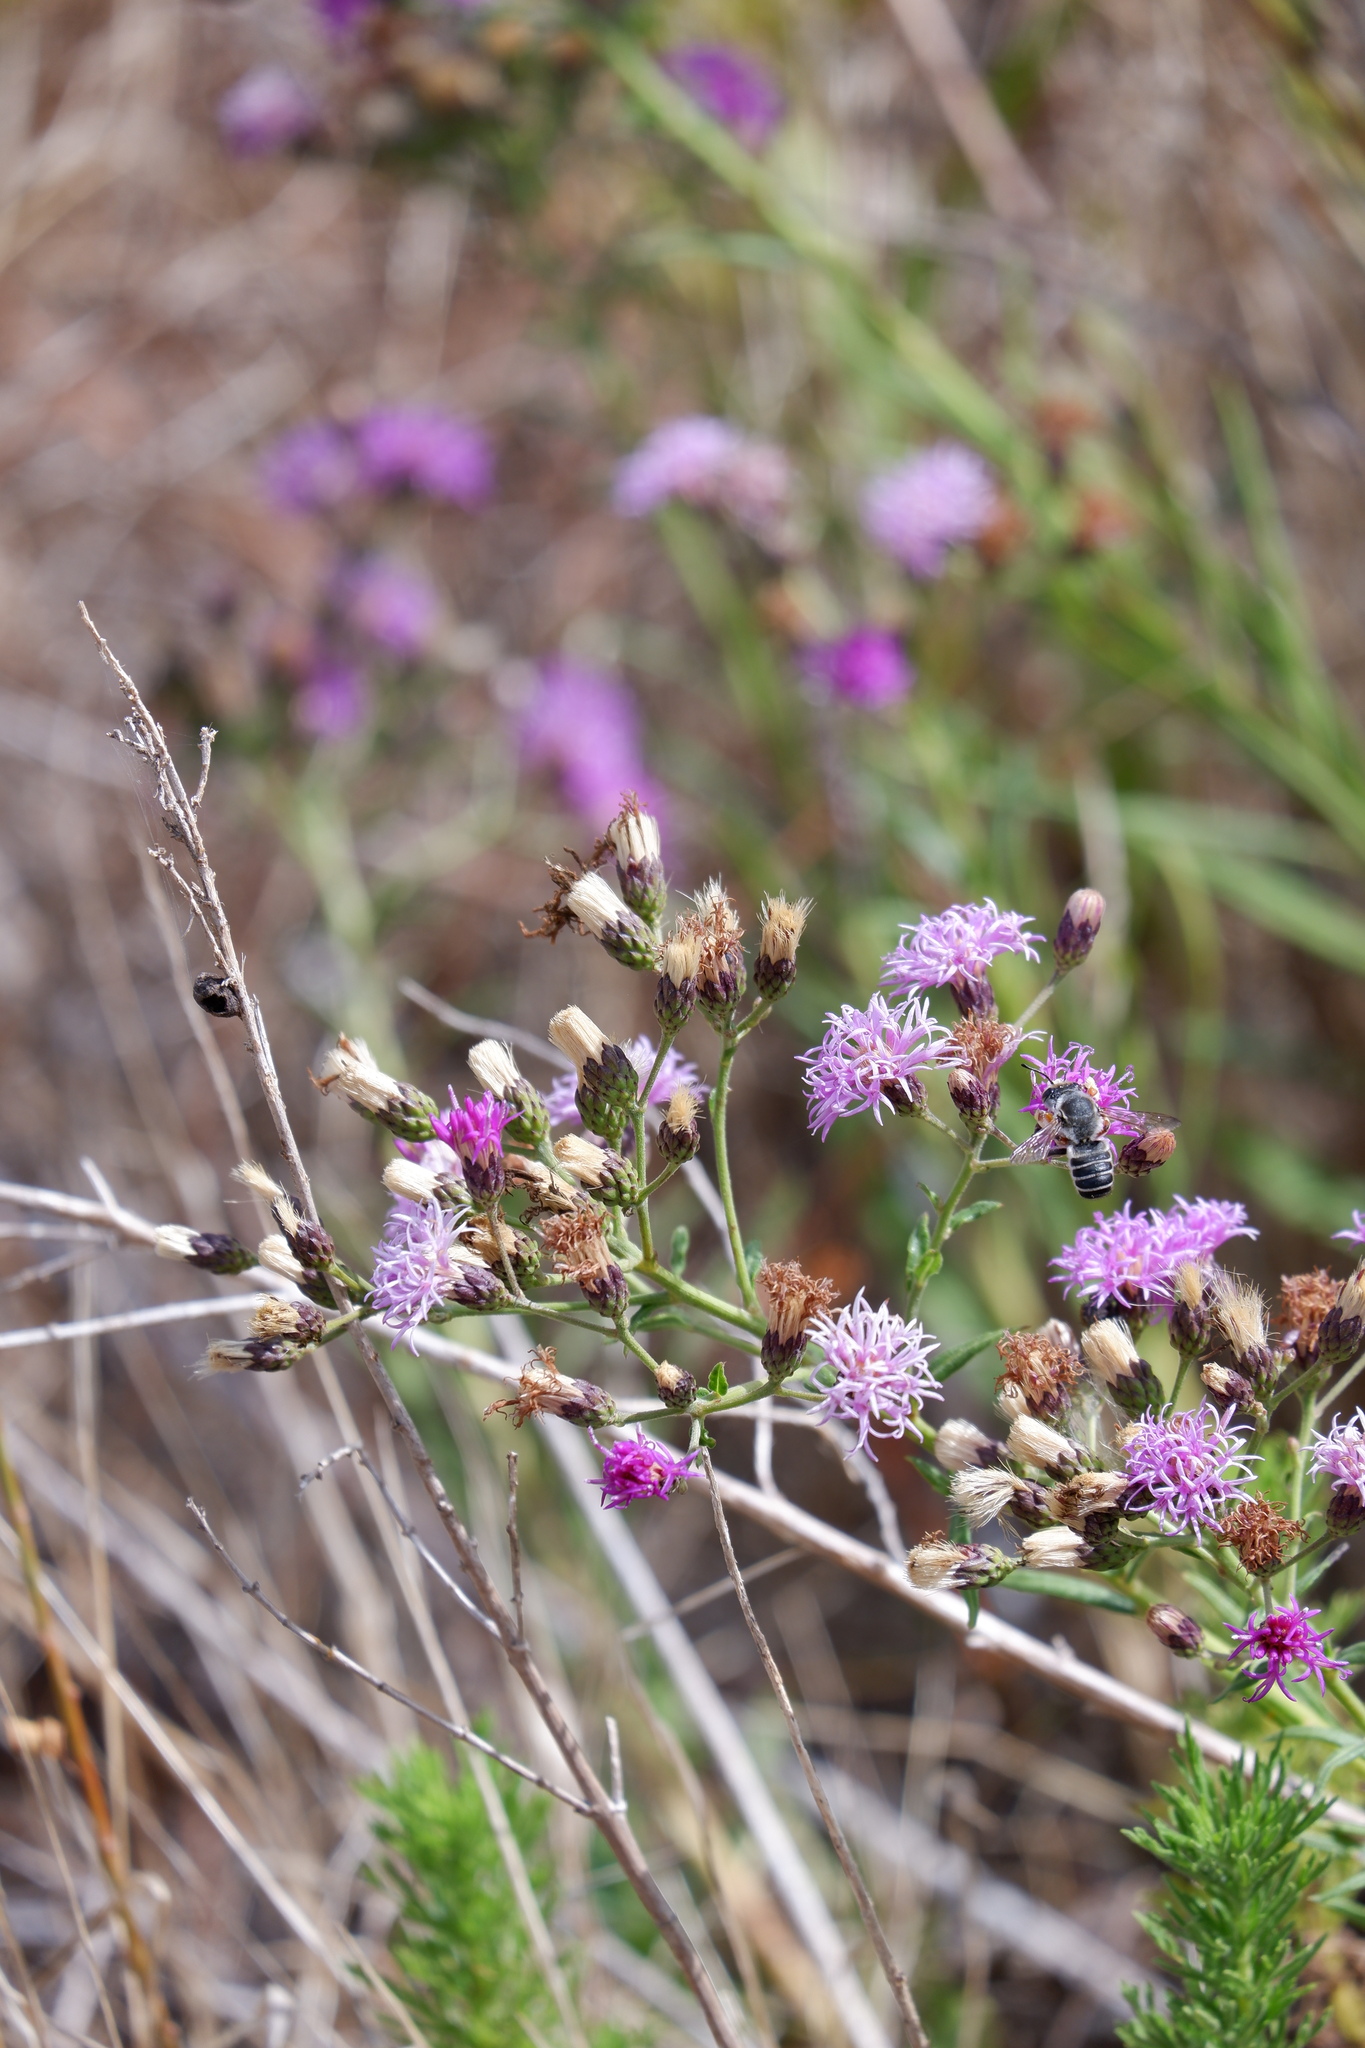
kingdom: Plantae
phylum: Tracheophyta
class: Magnoliopsida
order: Asterales
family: Asteraceae
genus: Vernonia
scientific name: Vernonia texana
